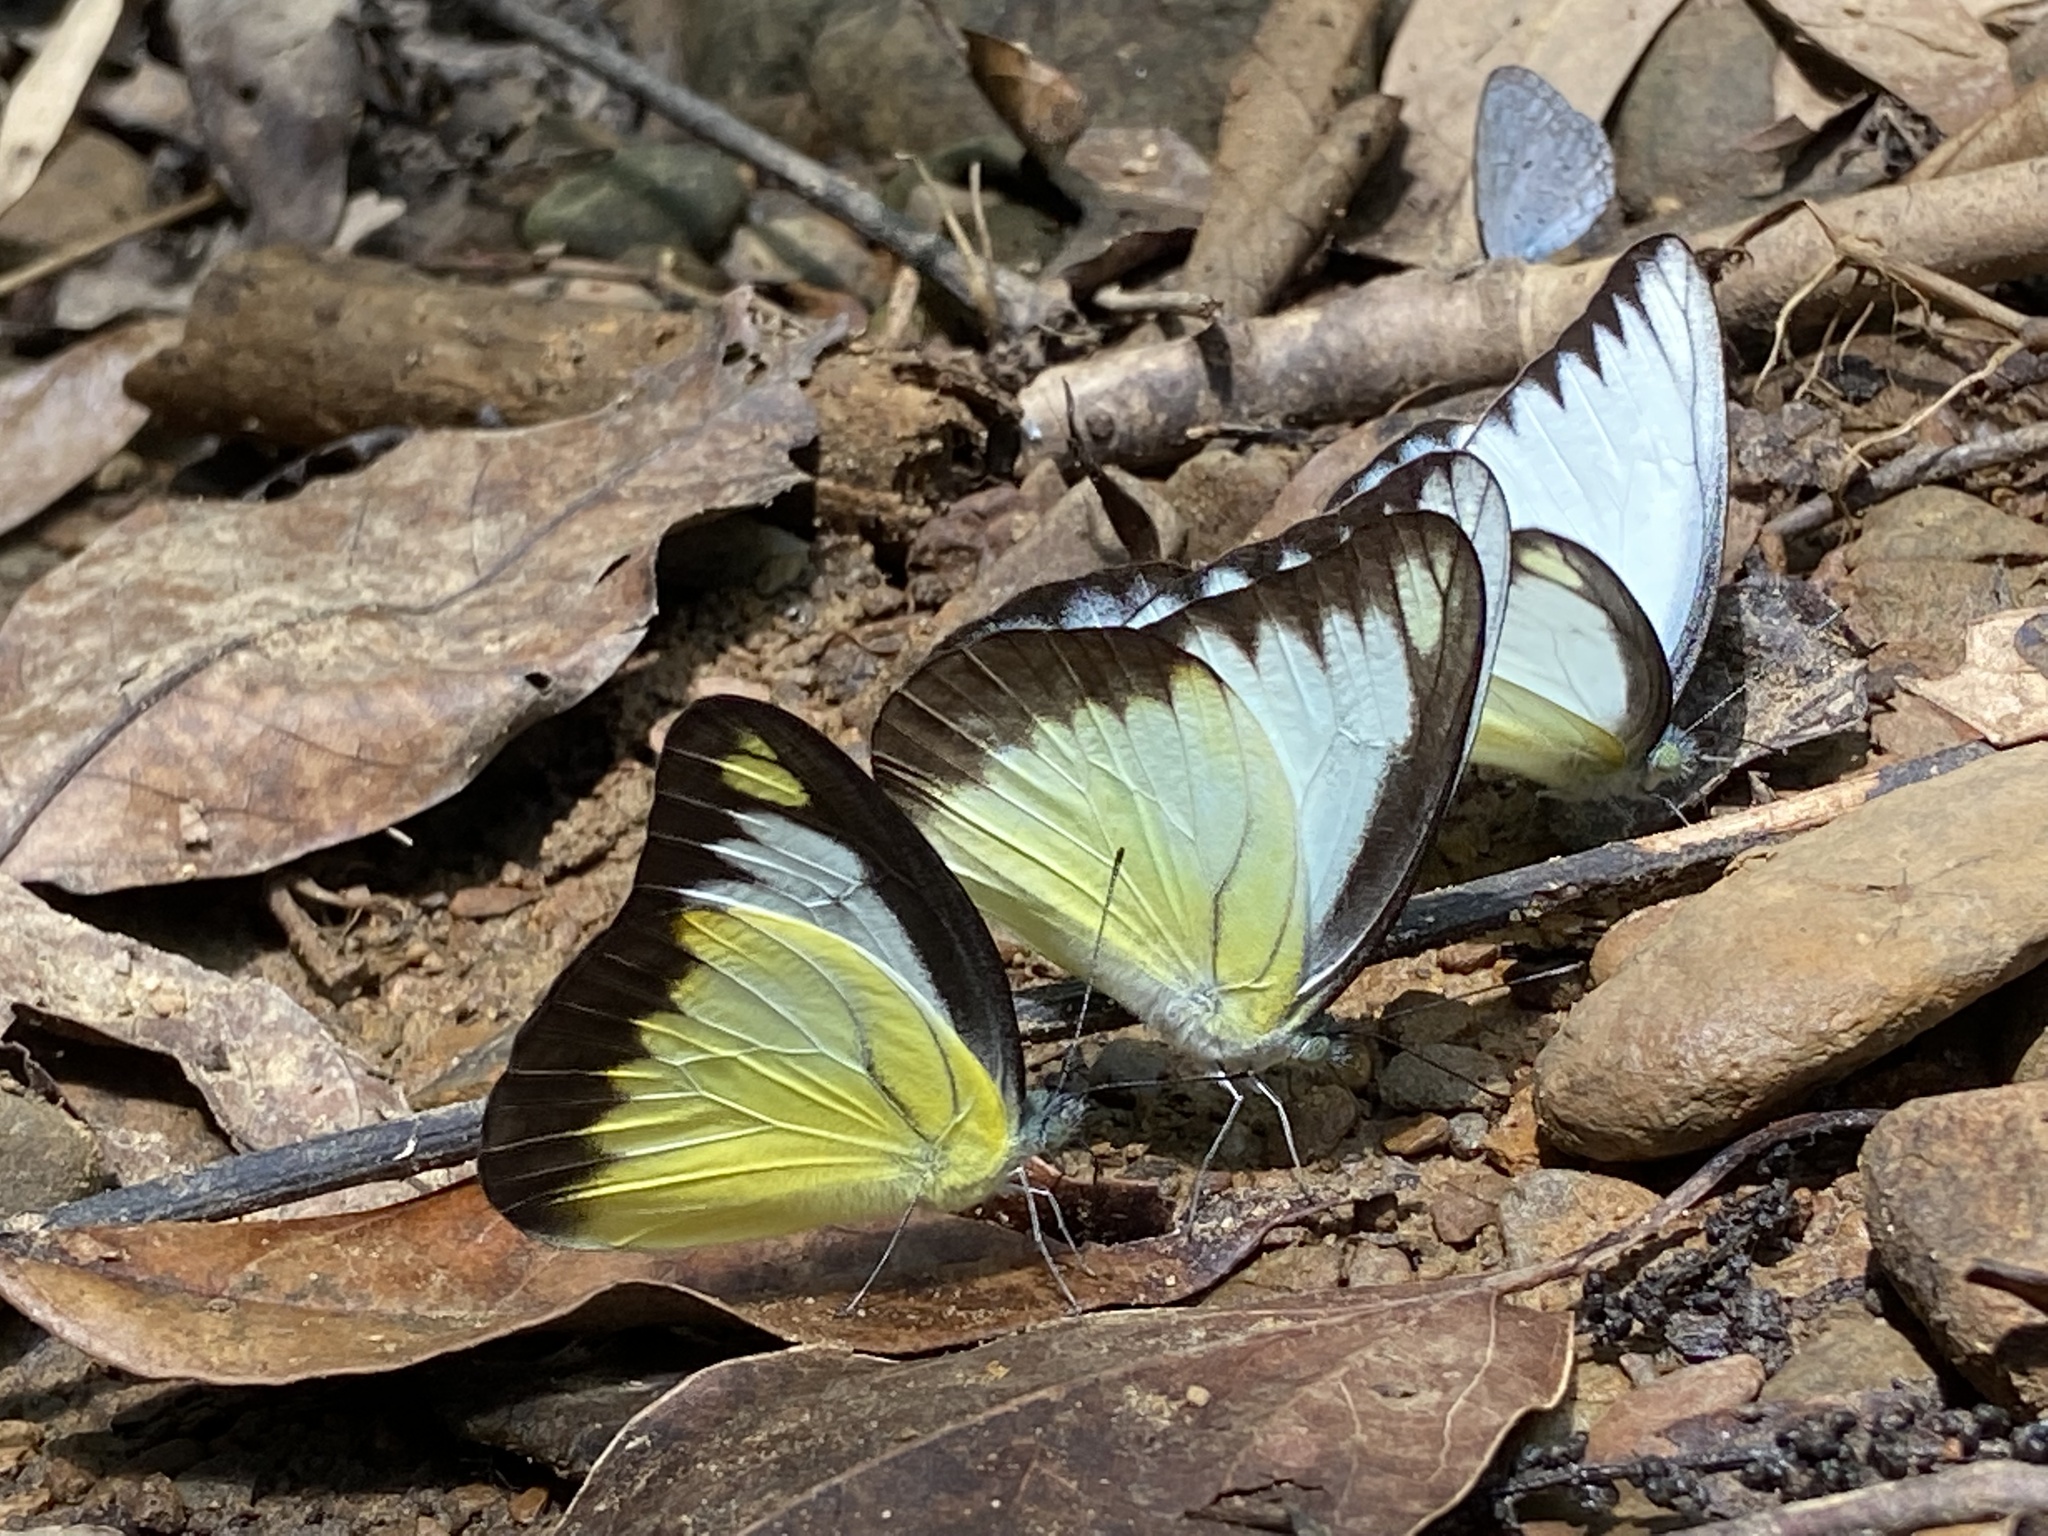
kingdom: Animalia
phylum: Arthropoda
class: Insecta
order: Lepidoptera
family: Pieridae
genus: Appias
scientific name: Appias lyncida
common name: Chocolate albatross
